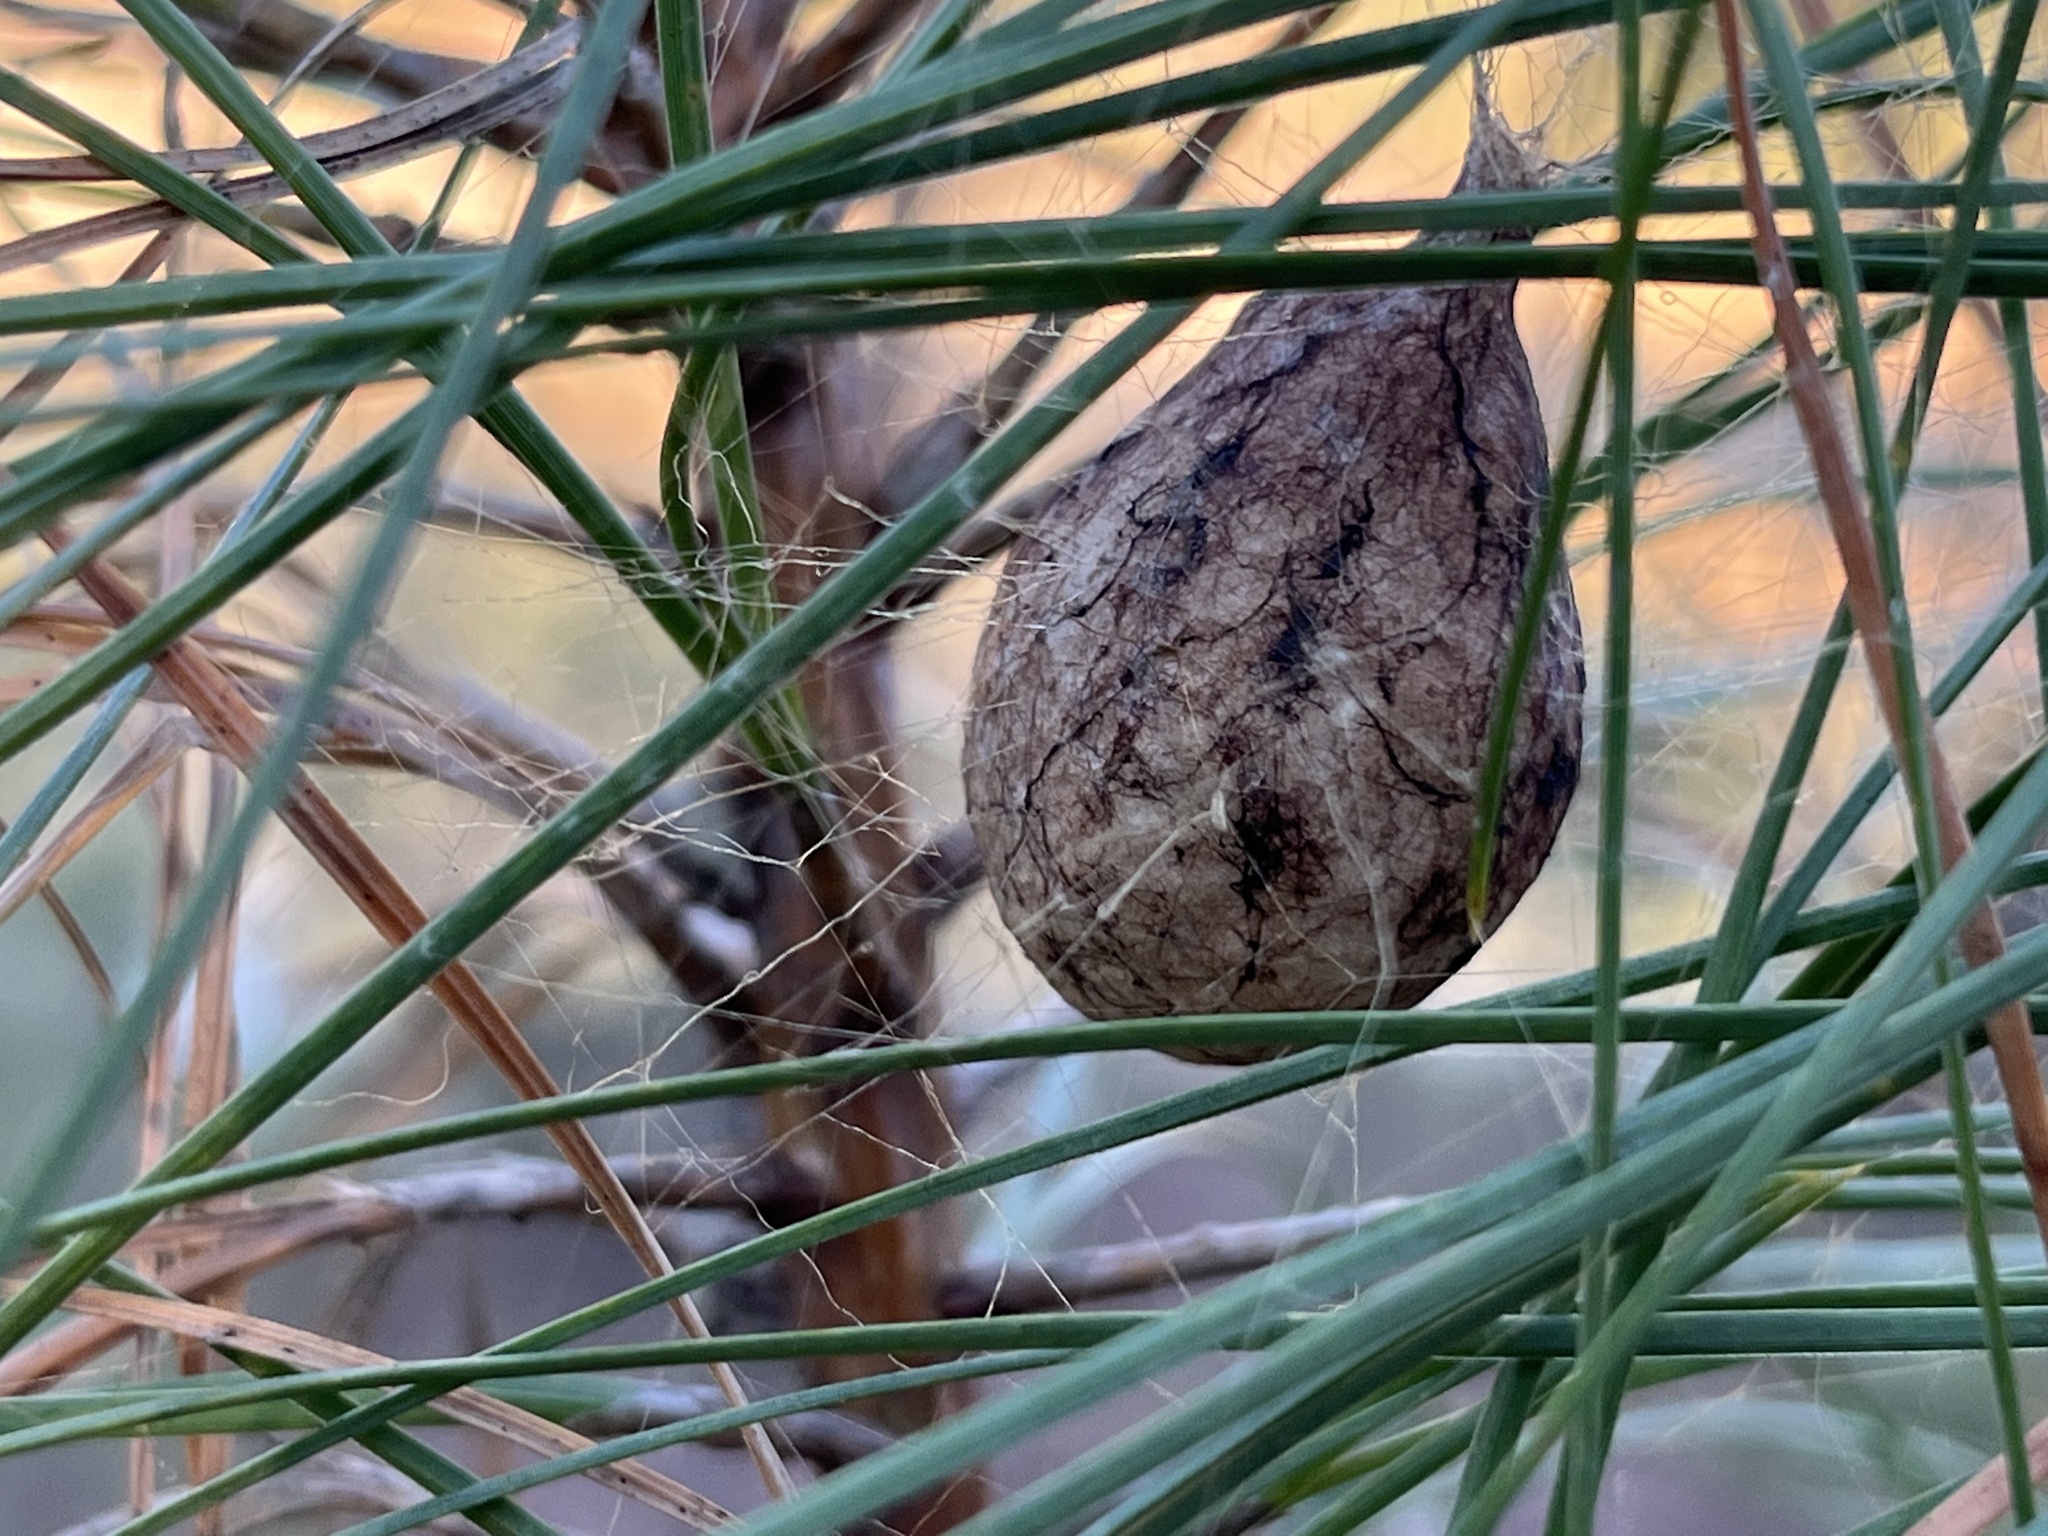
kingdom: Animalia
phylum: Arthropoda
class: Arachnida
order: Araneae
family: Araneidae
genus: Argiope
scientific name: Argiope aurantia
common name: Orb weavers
